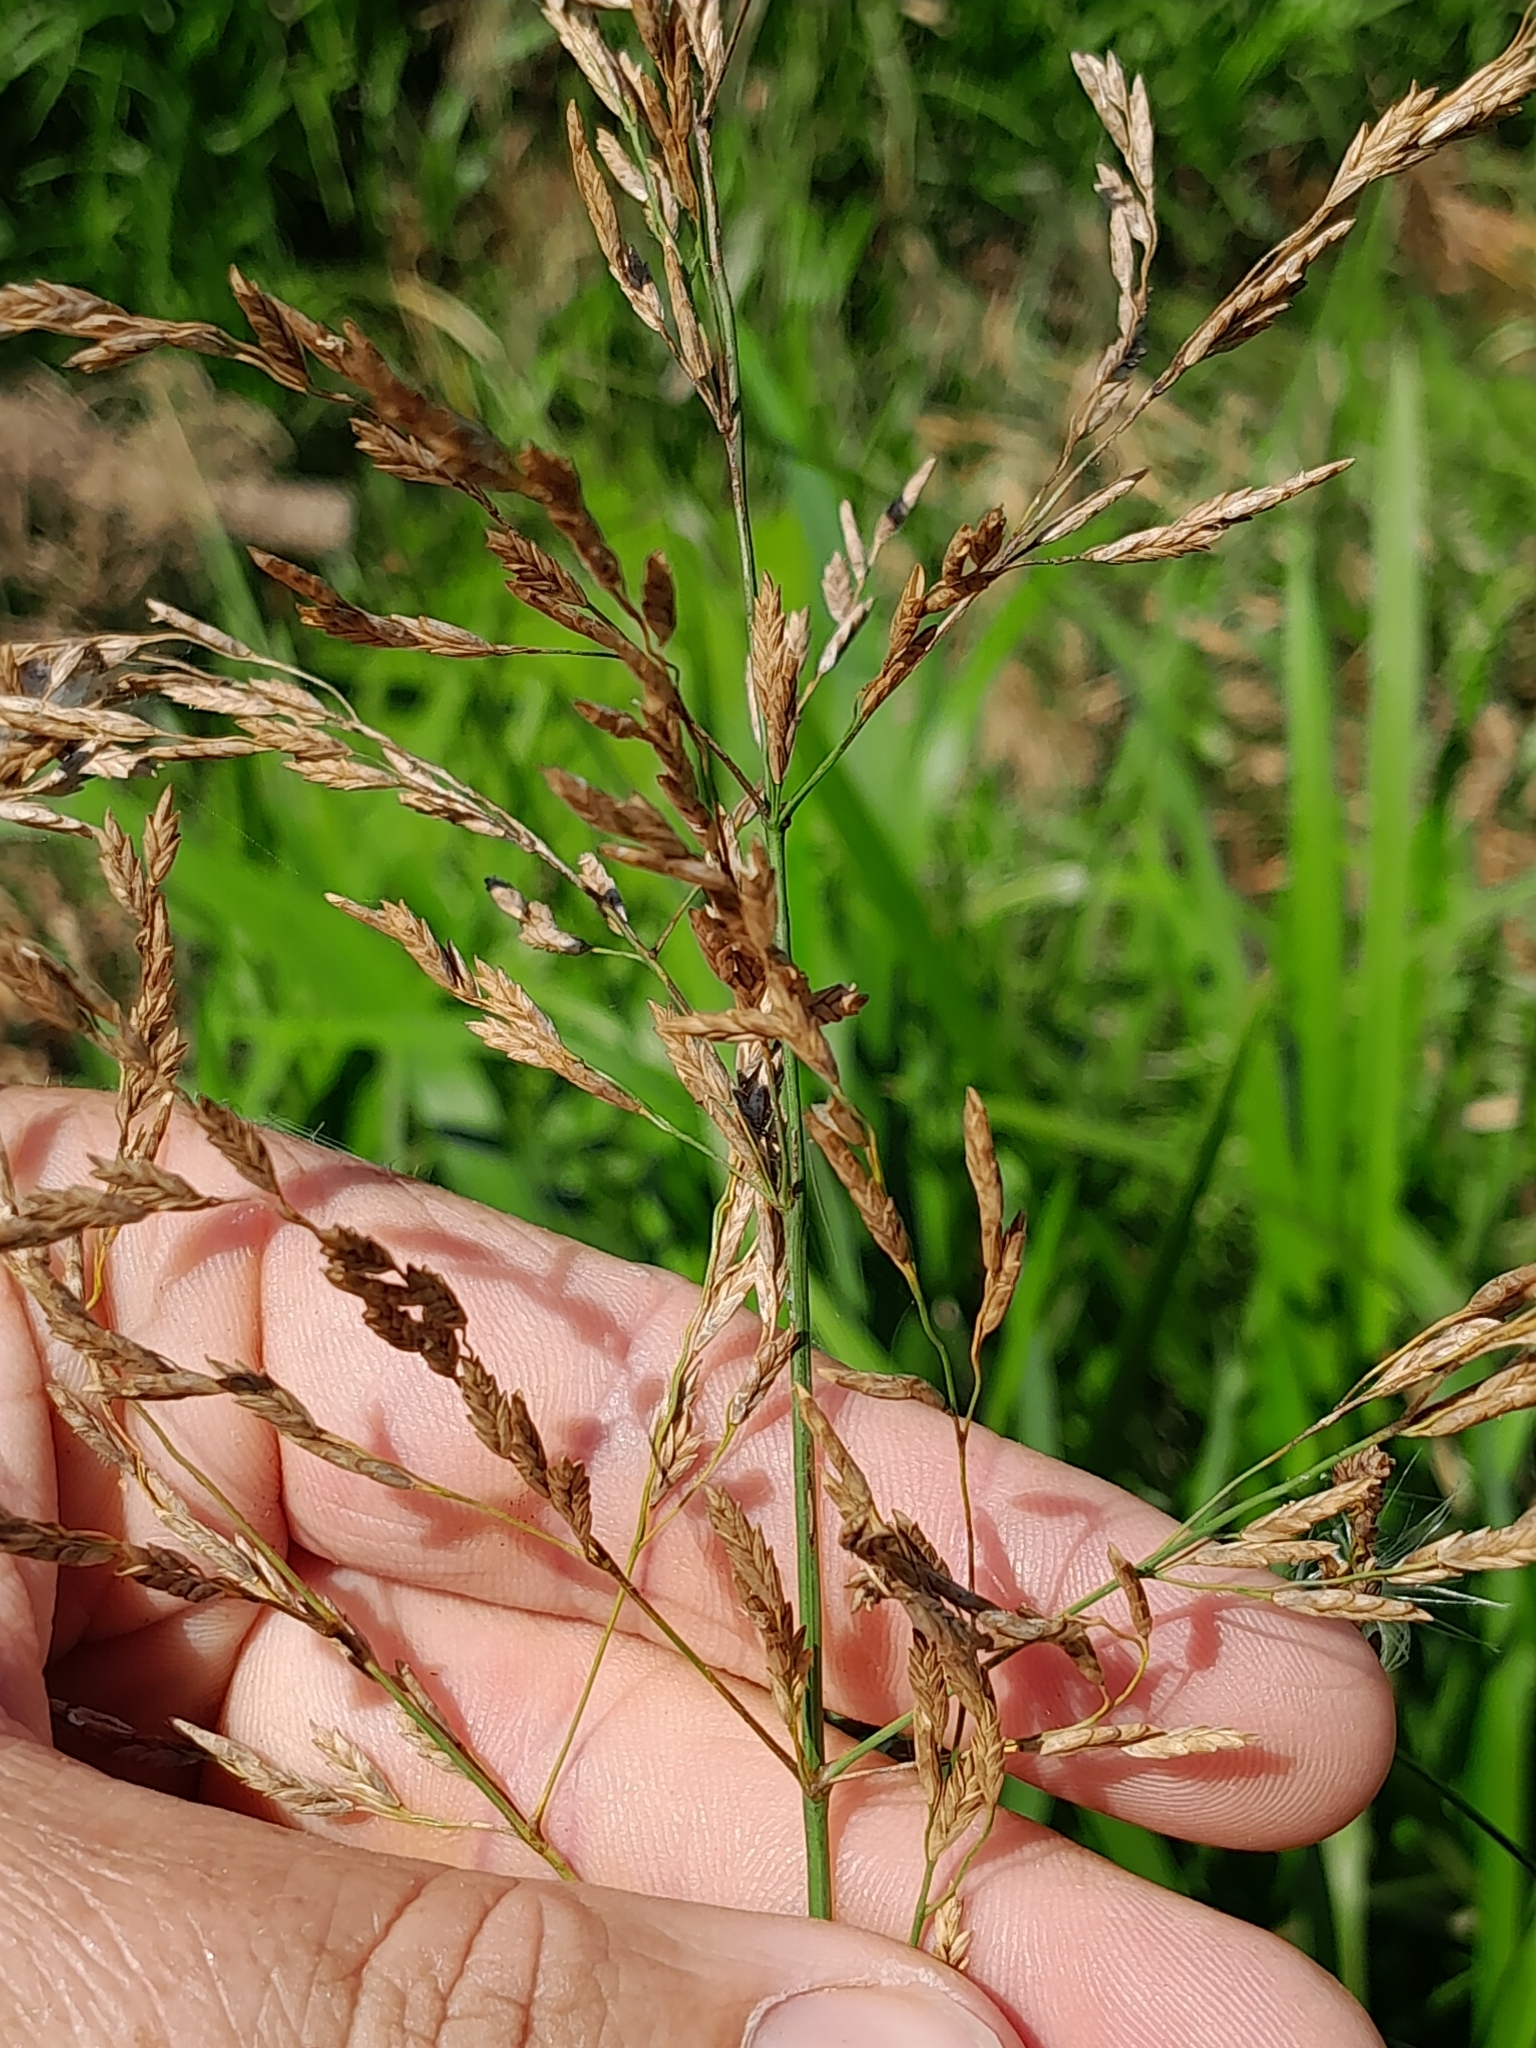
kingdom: Plantae
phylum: Tracheophyta
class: Liliopsida
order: Poales
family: Poaceae
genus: Glyceria
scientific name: Glyceria maxima
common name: Reed mannagrass
